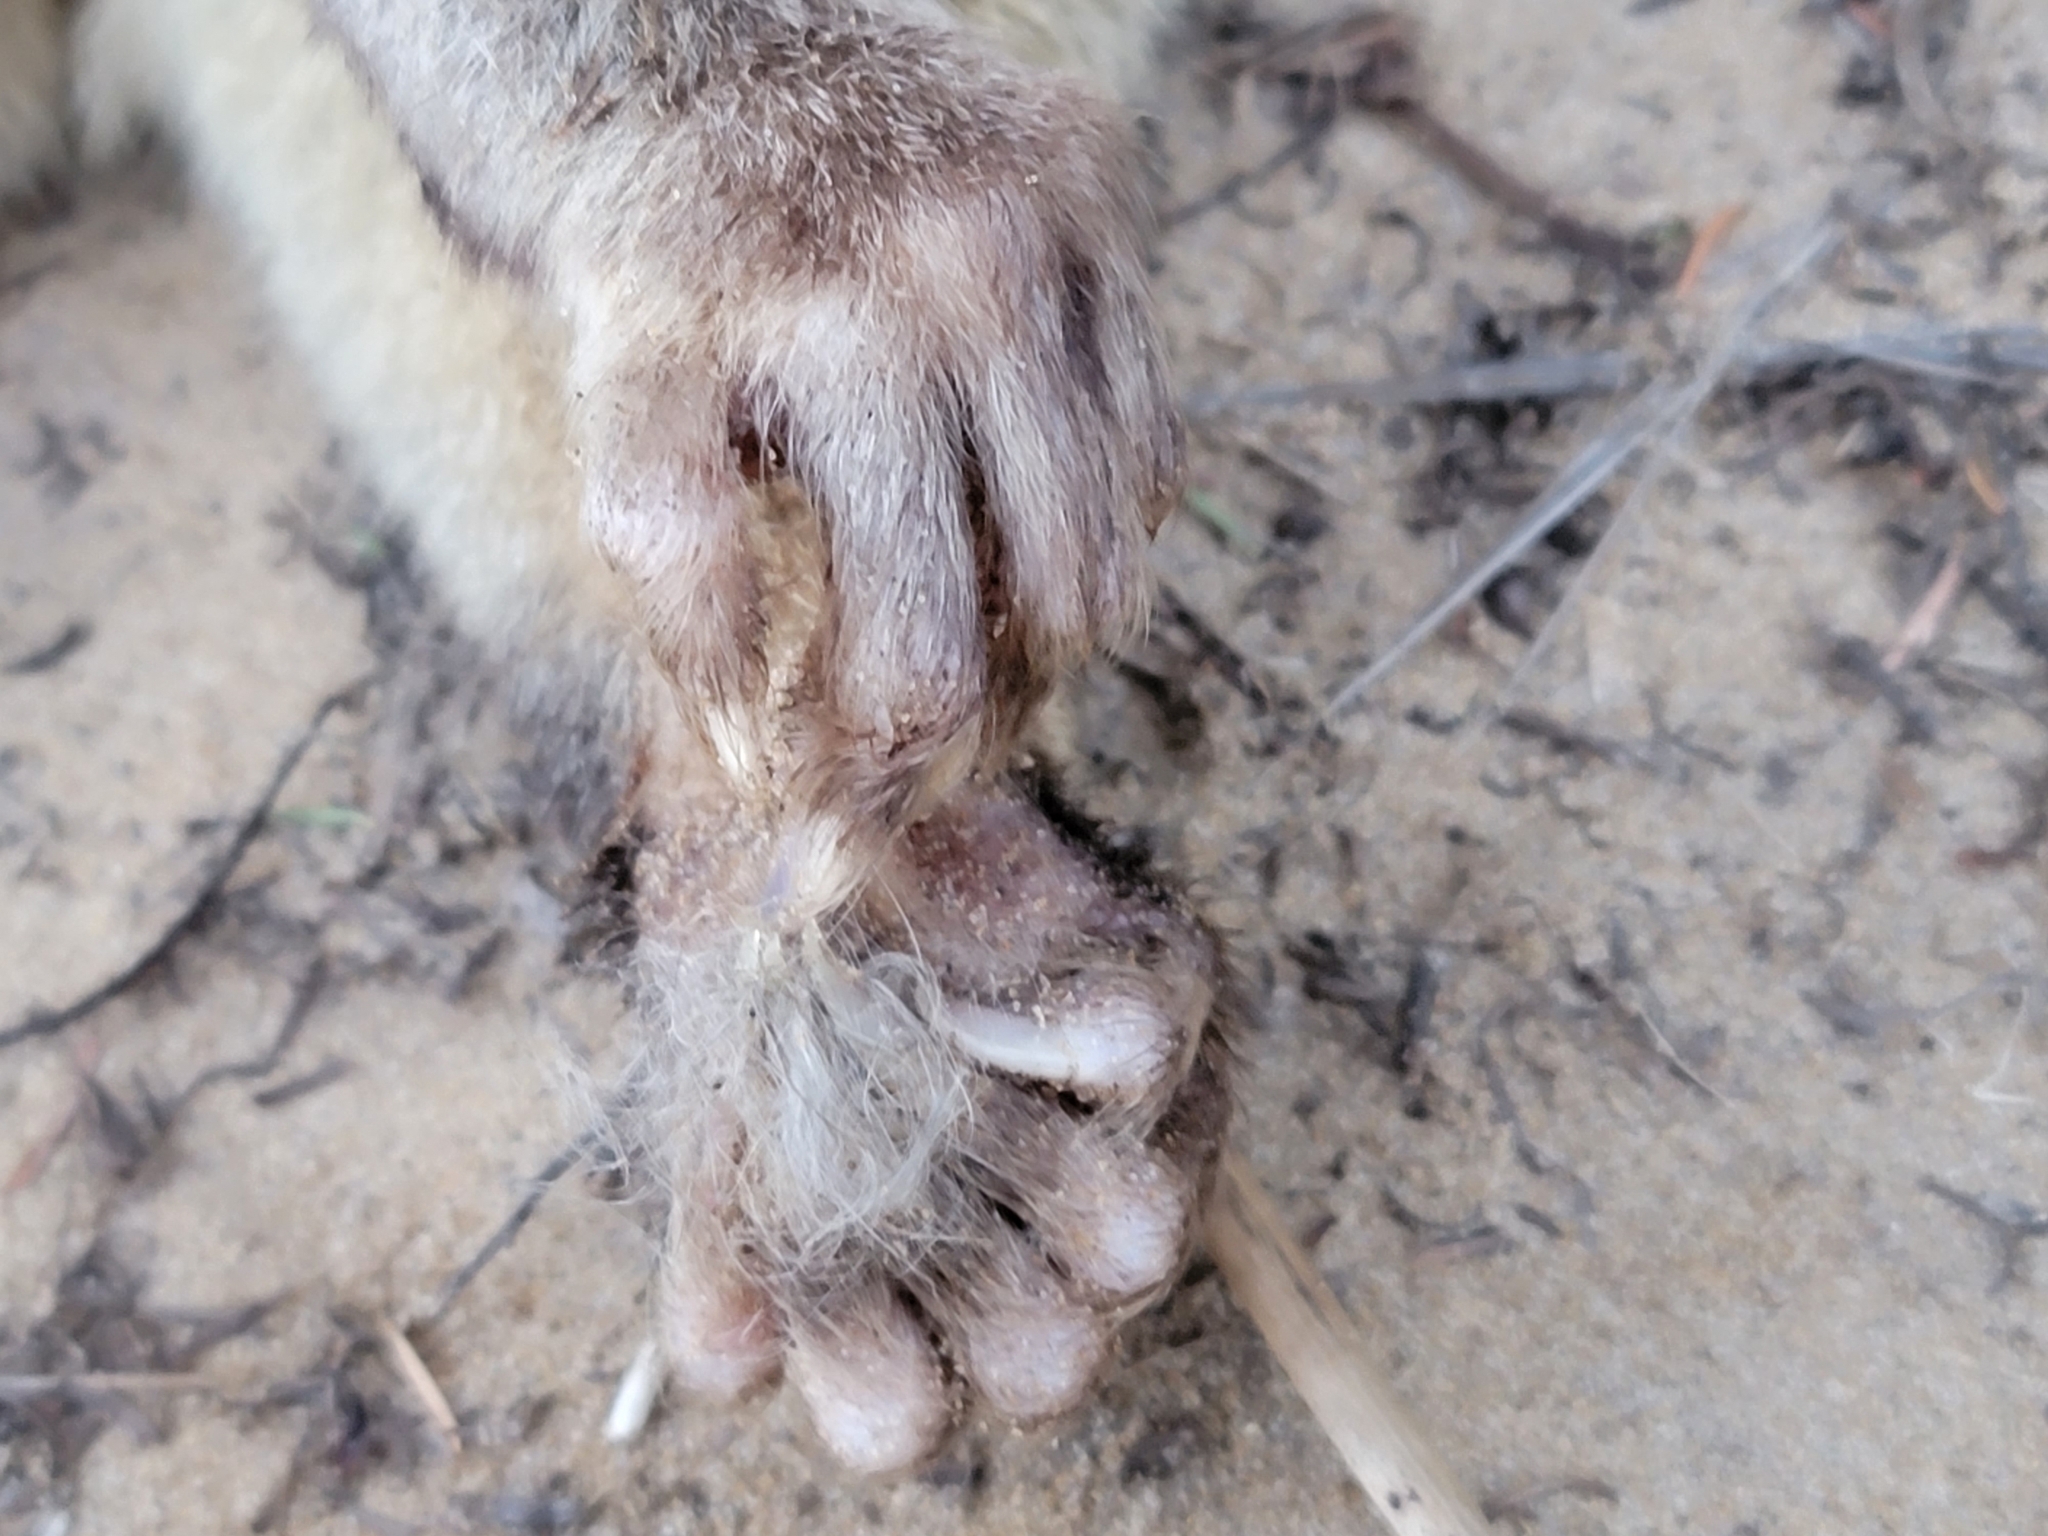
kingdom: Animalia
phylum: Chordata
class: Mammalia
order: Diprotodontia
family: Phalangeridae
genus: Trichosurus
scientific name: Trichosurus vulpecula
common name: Common brushtail
